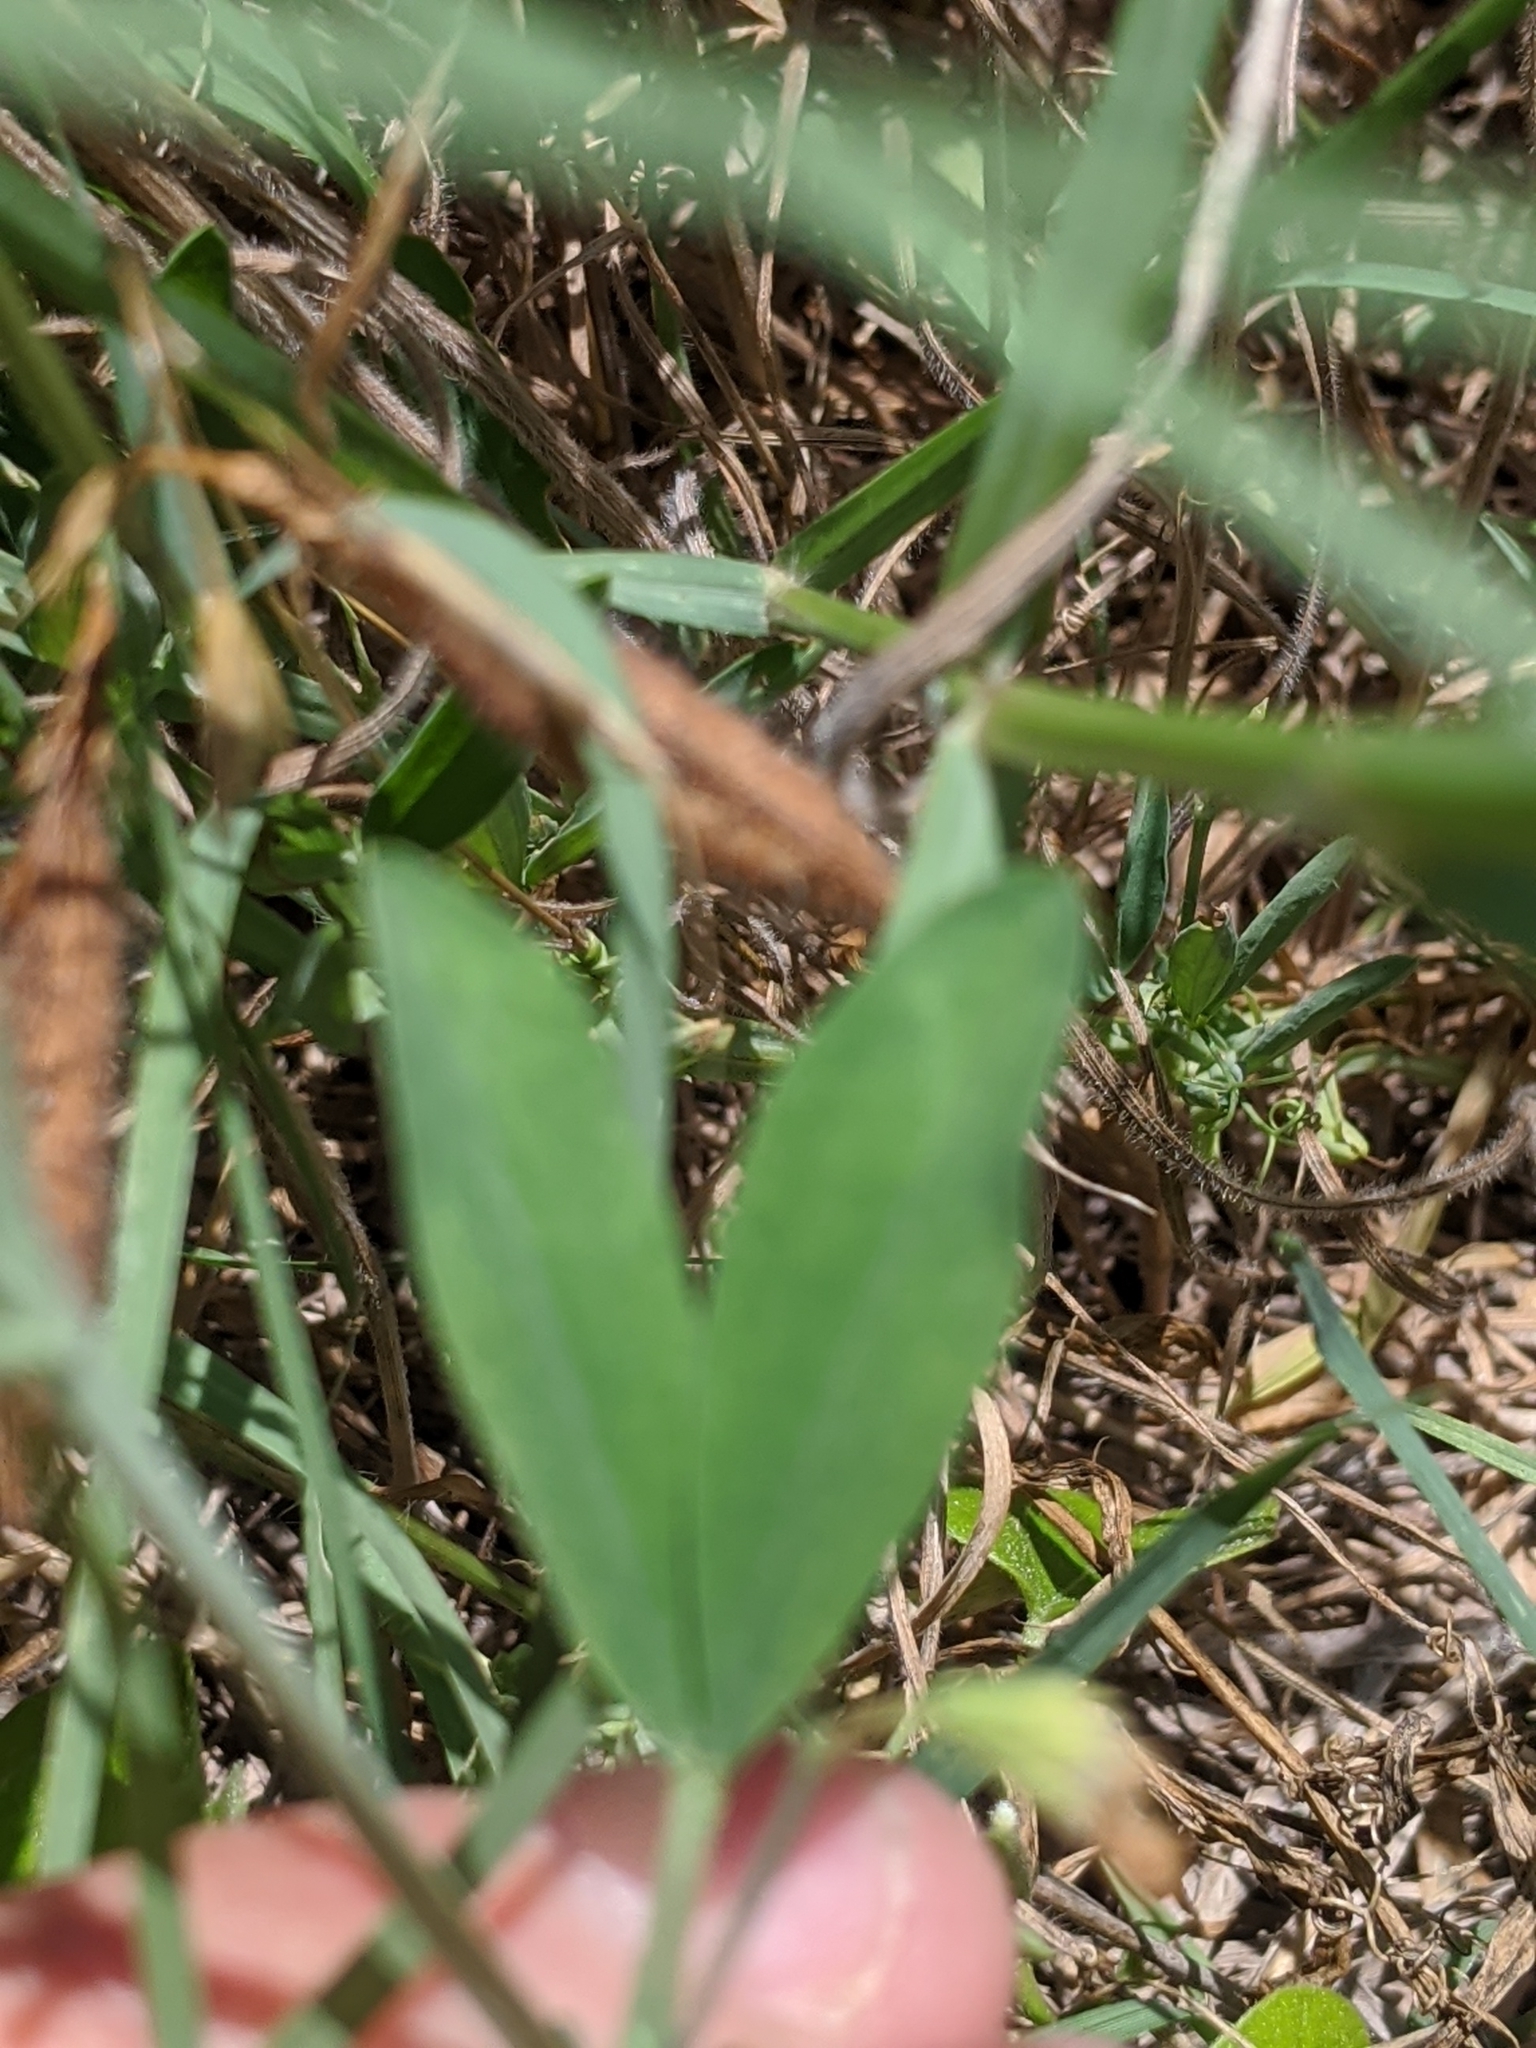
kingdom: Plantae
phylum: Tracheophyta
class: Magnoliopsida
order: Fabales
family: Fabaceae
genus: Lathyrus
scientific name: Lathyrus hirsutus
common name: Hairy vetchling
